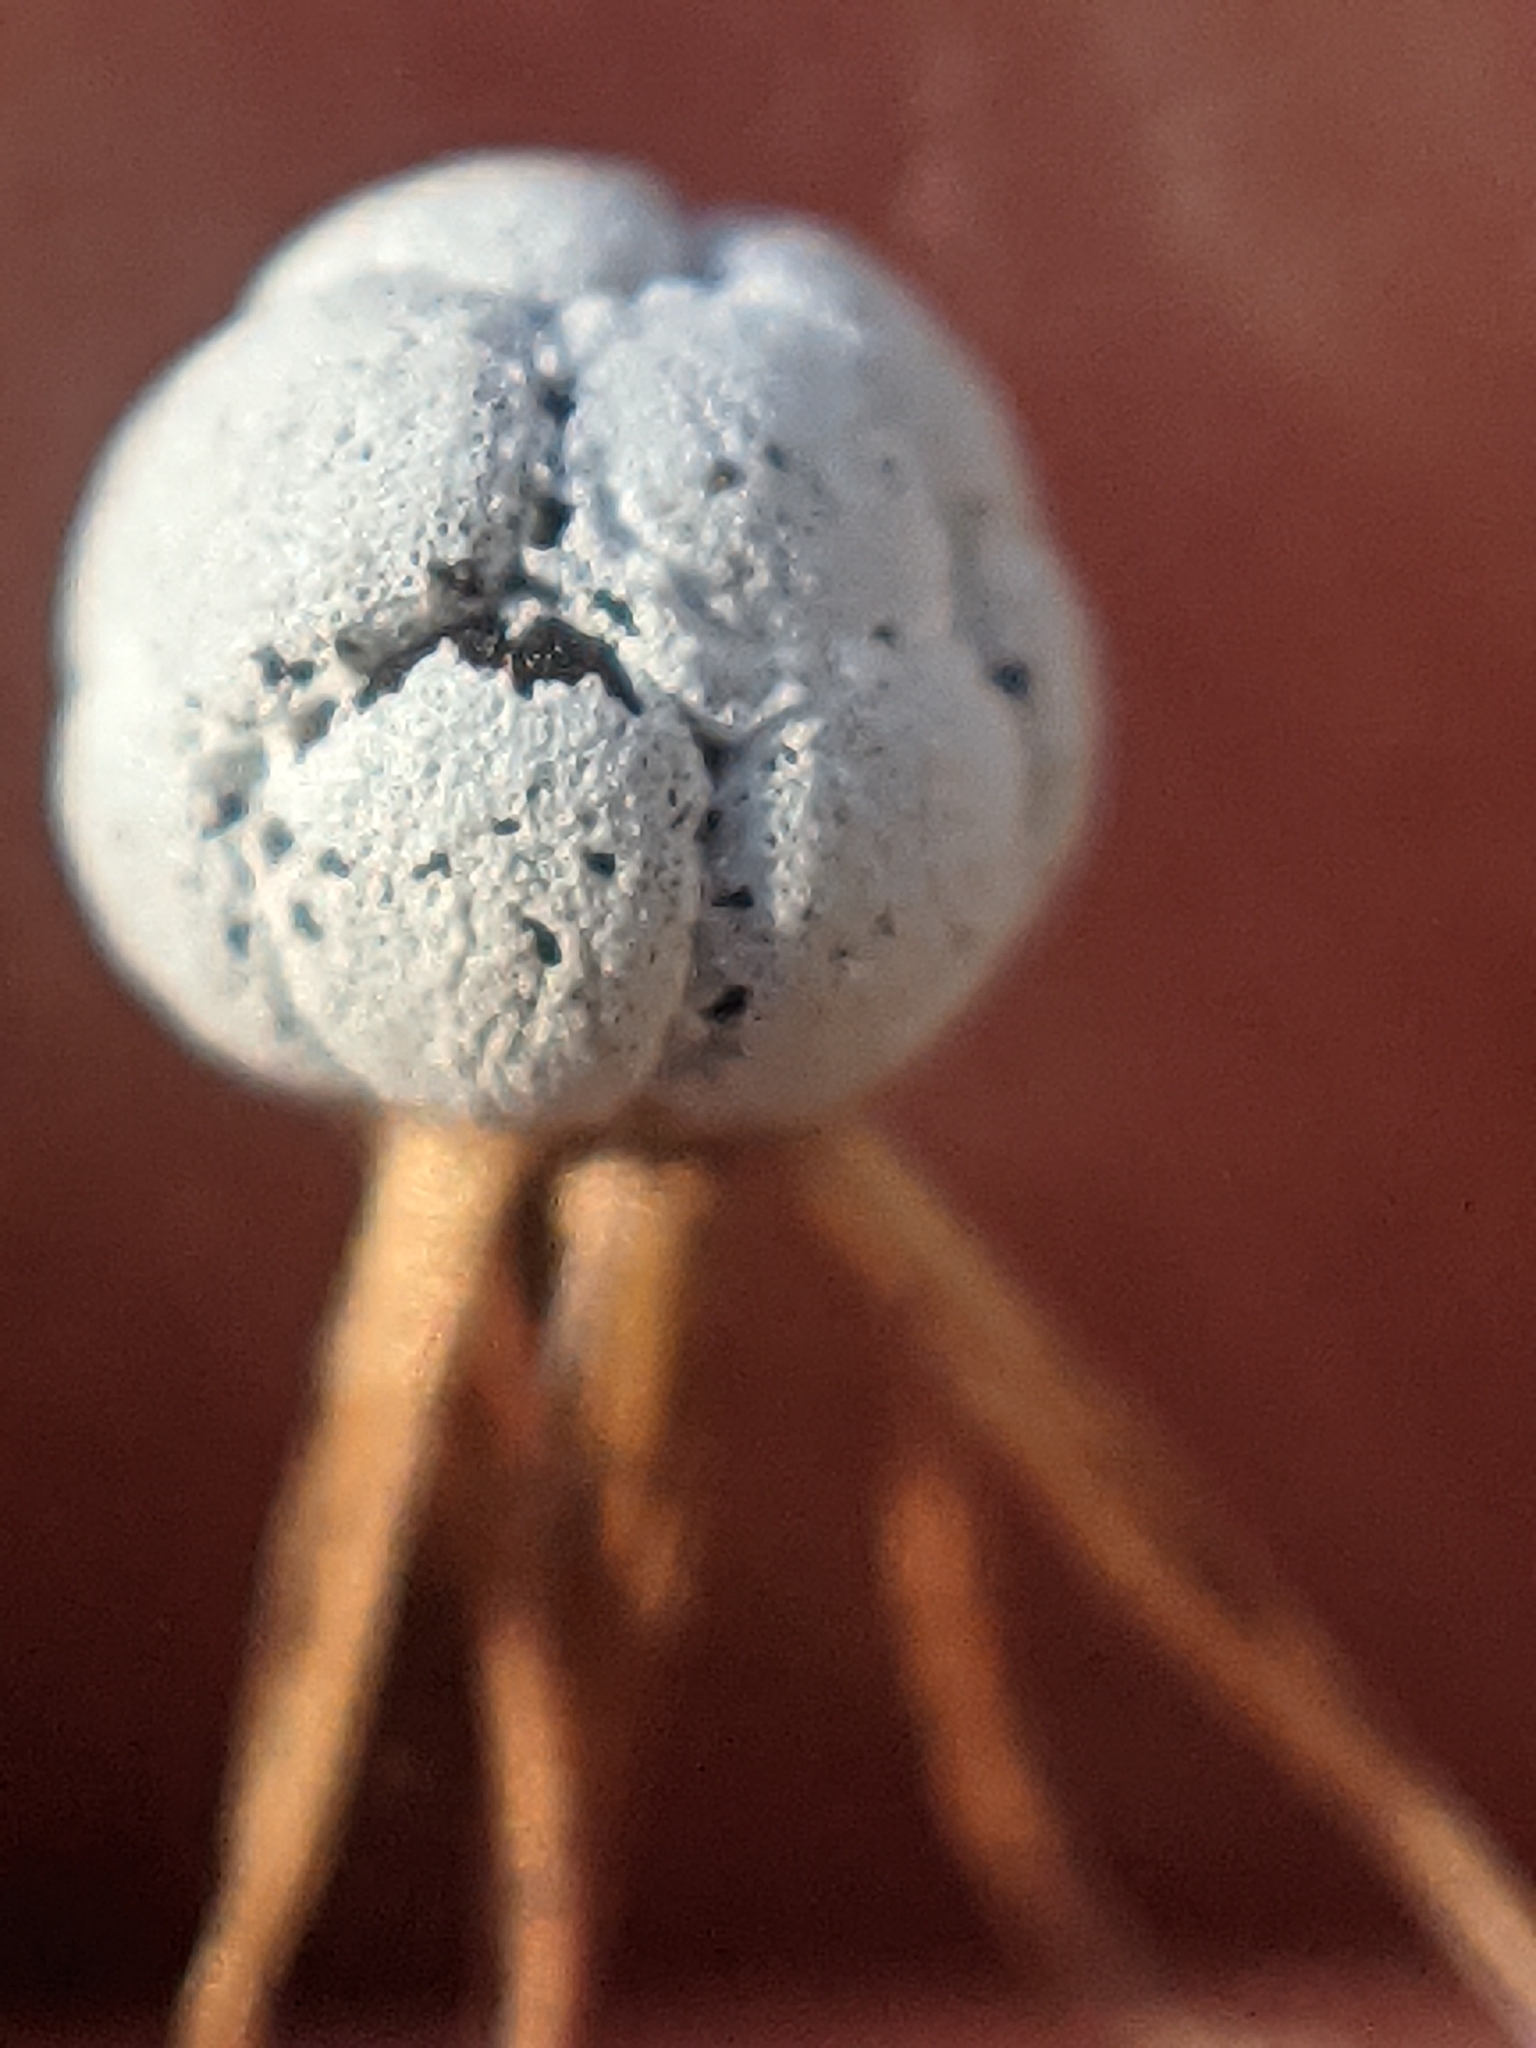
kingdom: Plantae
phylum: Tracheophyta
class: Magnoliopsida
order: Ericales
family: Primulaceae
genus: Lysimachia
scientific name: Lysimachia borealis
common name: American starflower
